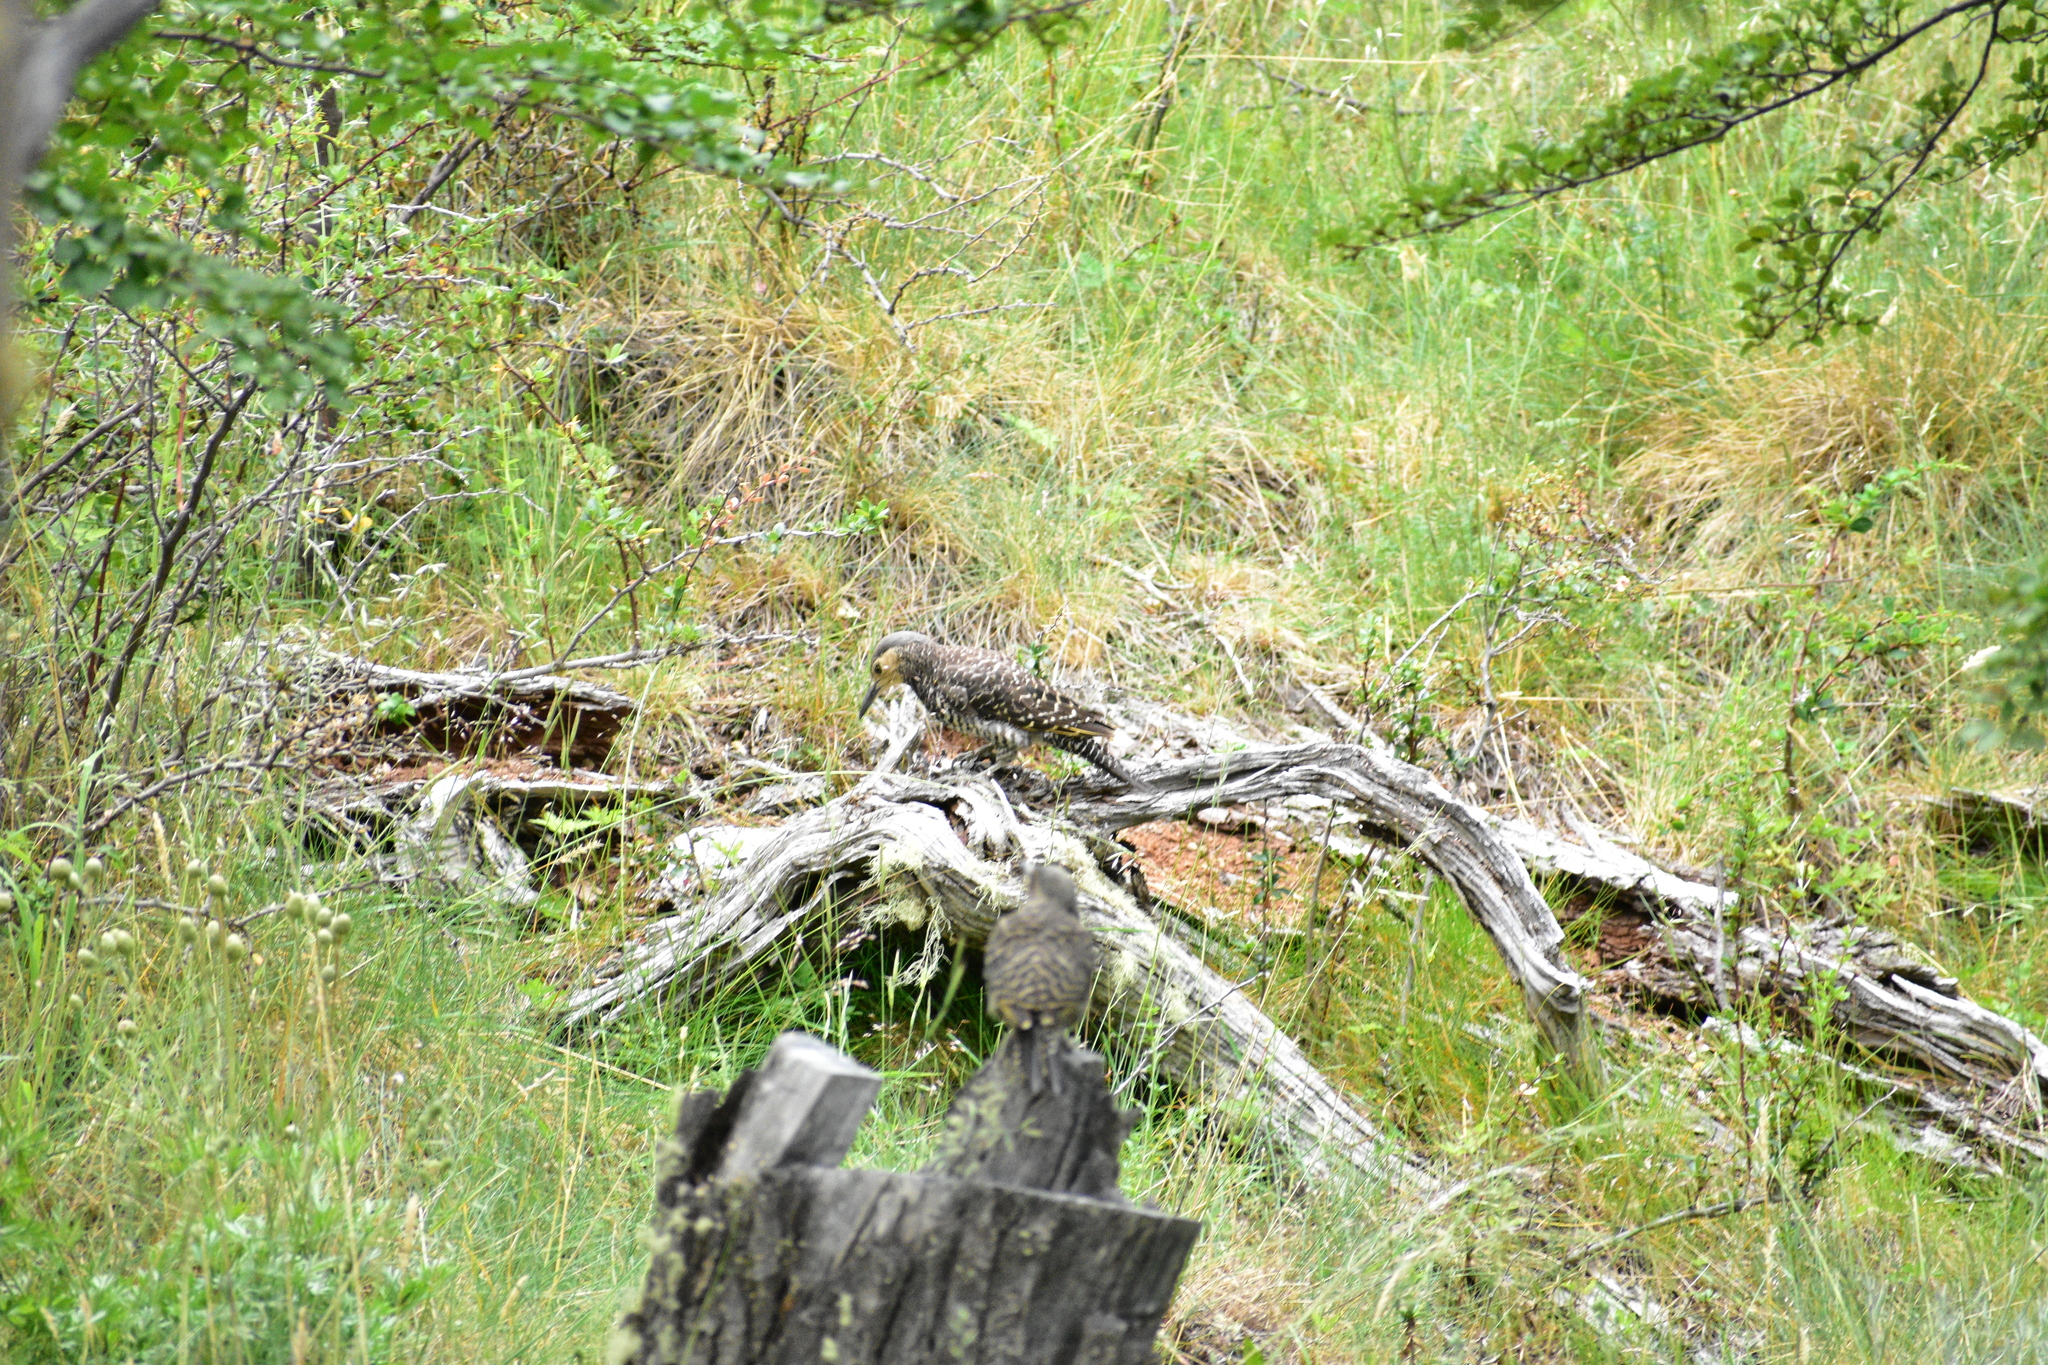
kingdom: Animalia
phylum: Chordata
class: Aves
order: Piciformes
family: Picidae
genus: Colaptes
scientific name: Colaptes pitius
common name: Chilean flicker
